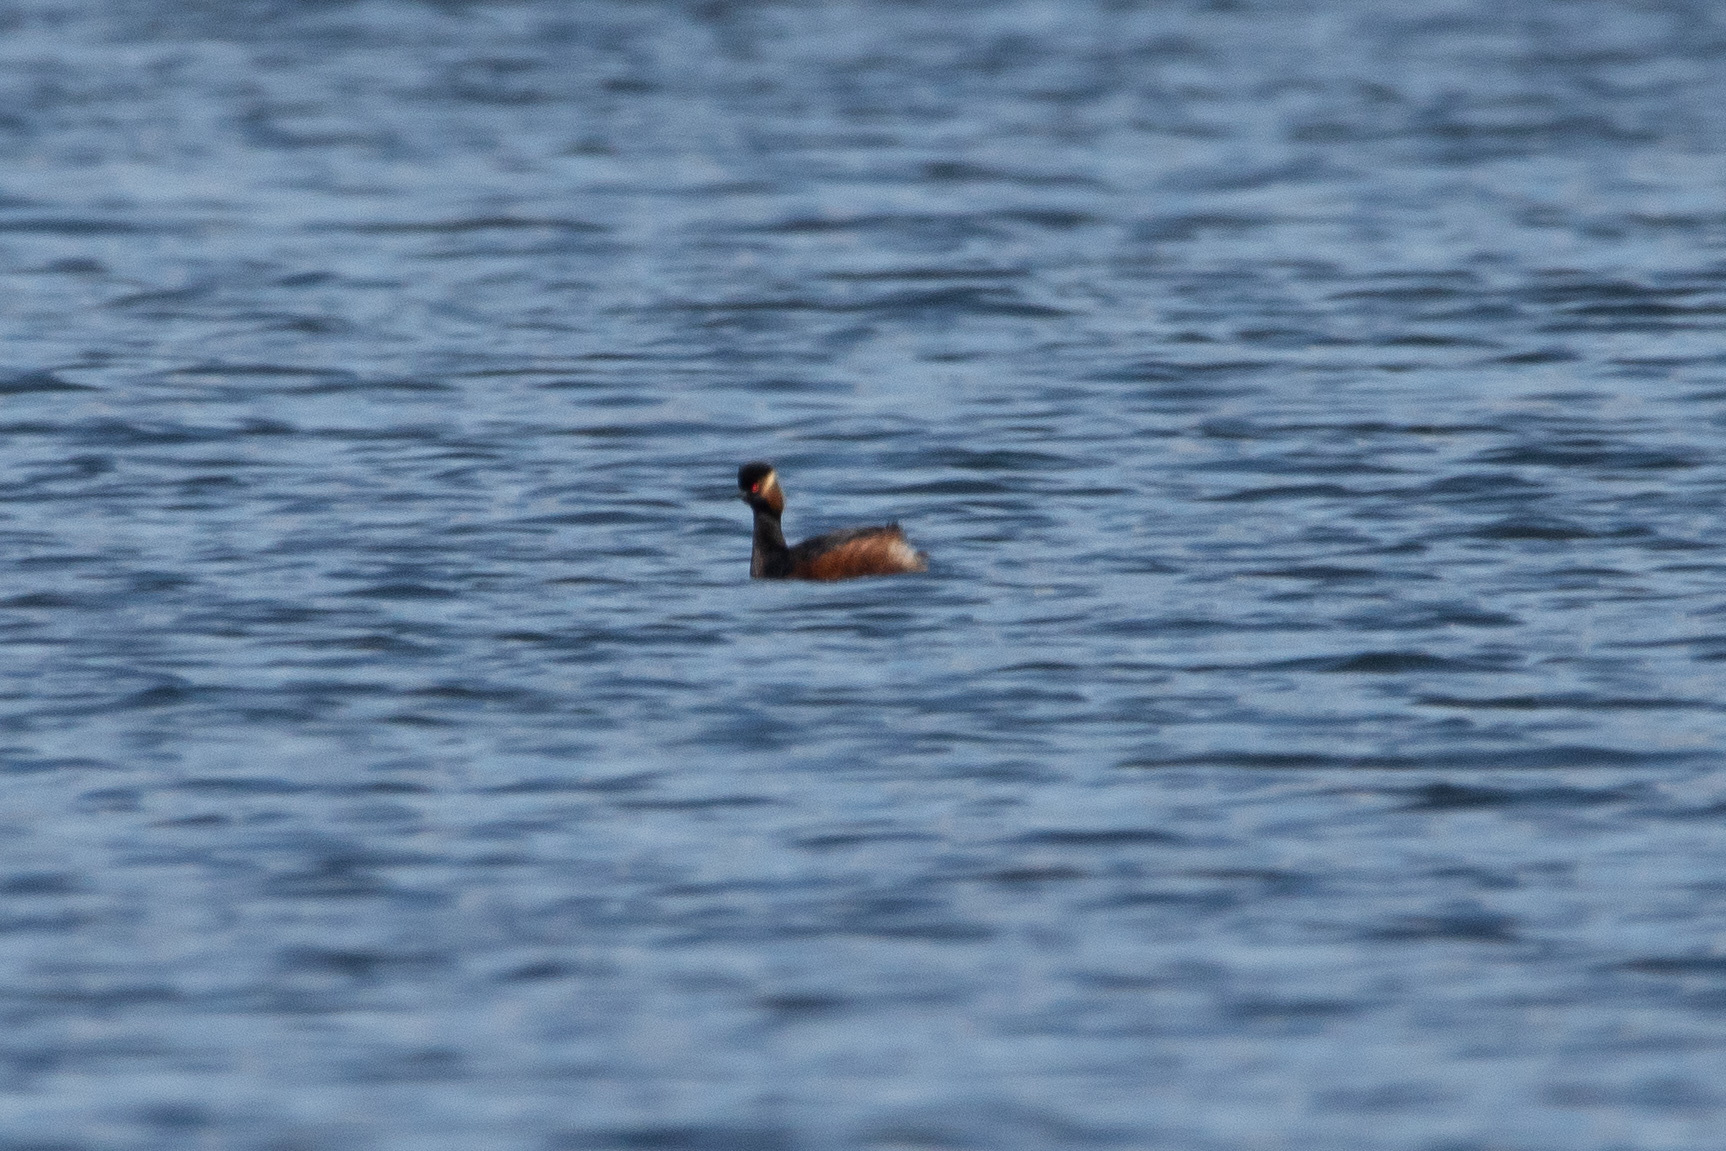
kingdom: Animalia
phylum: Chordata
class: Aves
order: Podicipediformes
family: Podicipedidae
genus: Podiceps
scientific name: Podiceps nigricollis
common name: Black-necked grebe
